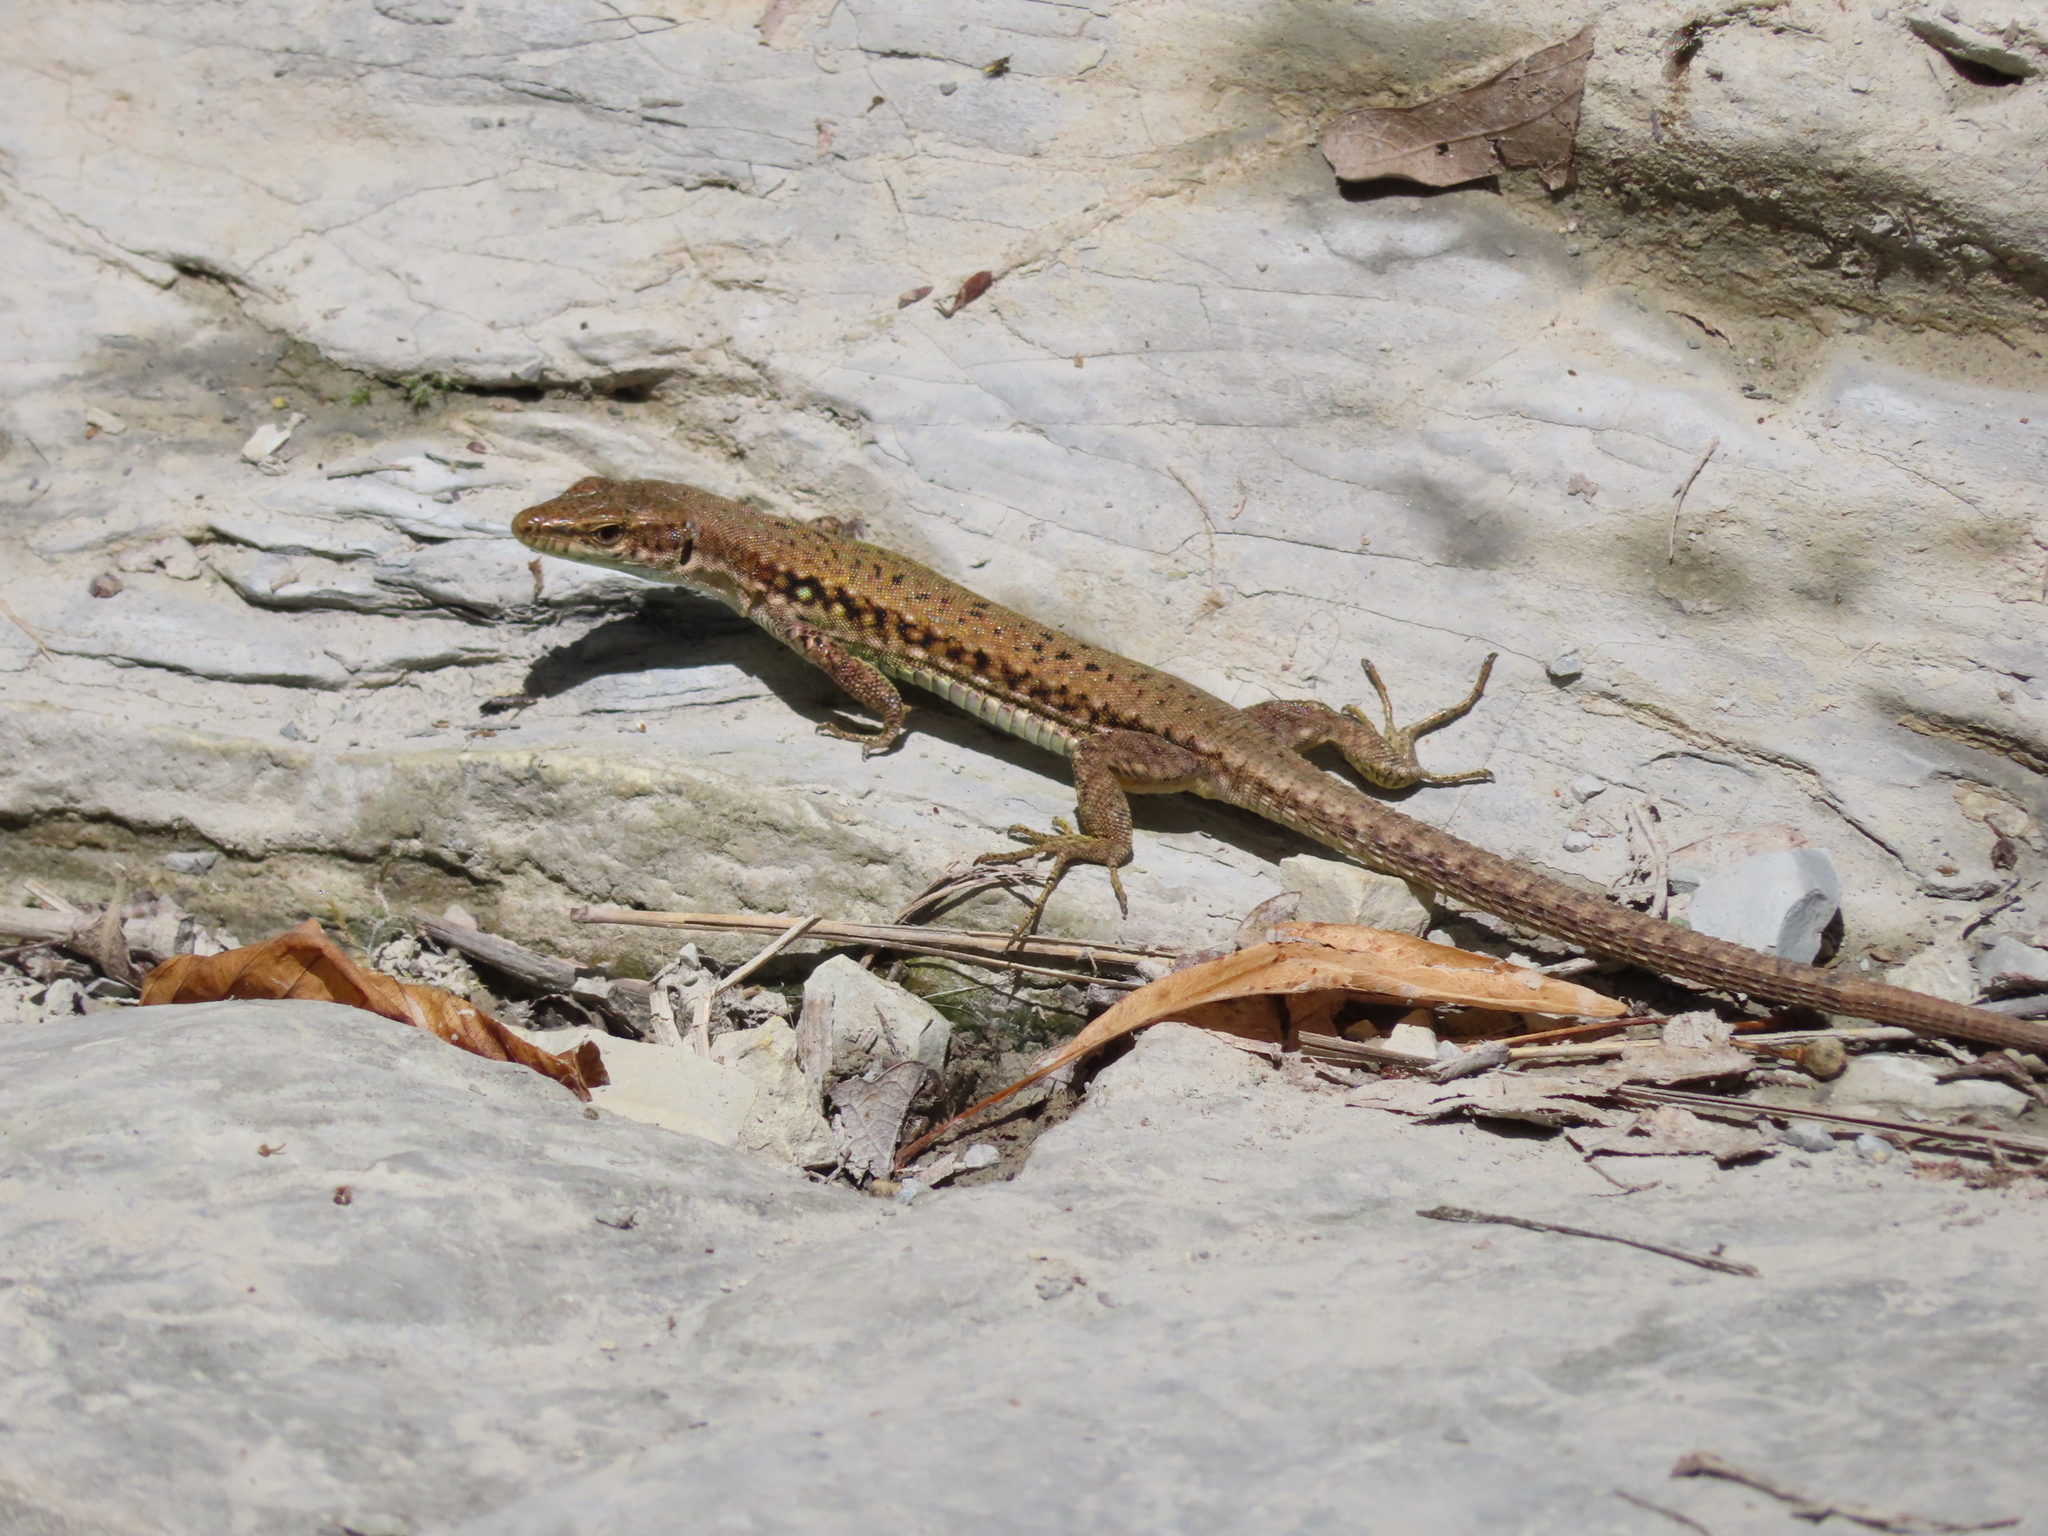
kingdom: Animalia
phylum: Chordata
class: Squamata
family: Lacertidae
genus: Darevskia
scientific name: Darevskia brauneri
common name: Brauner's rock lizard
